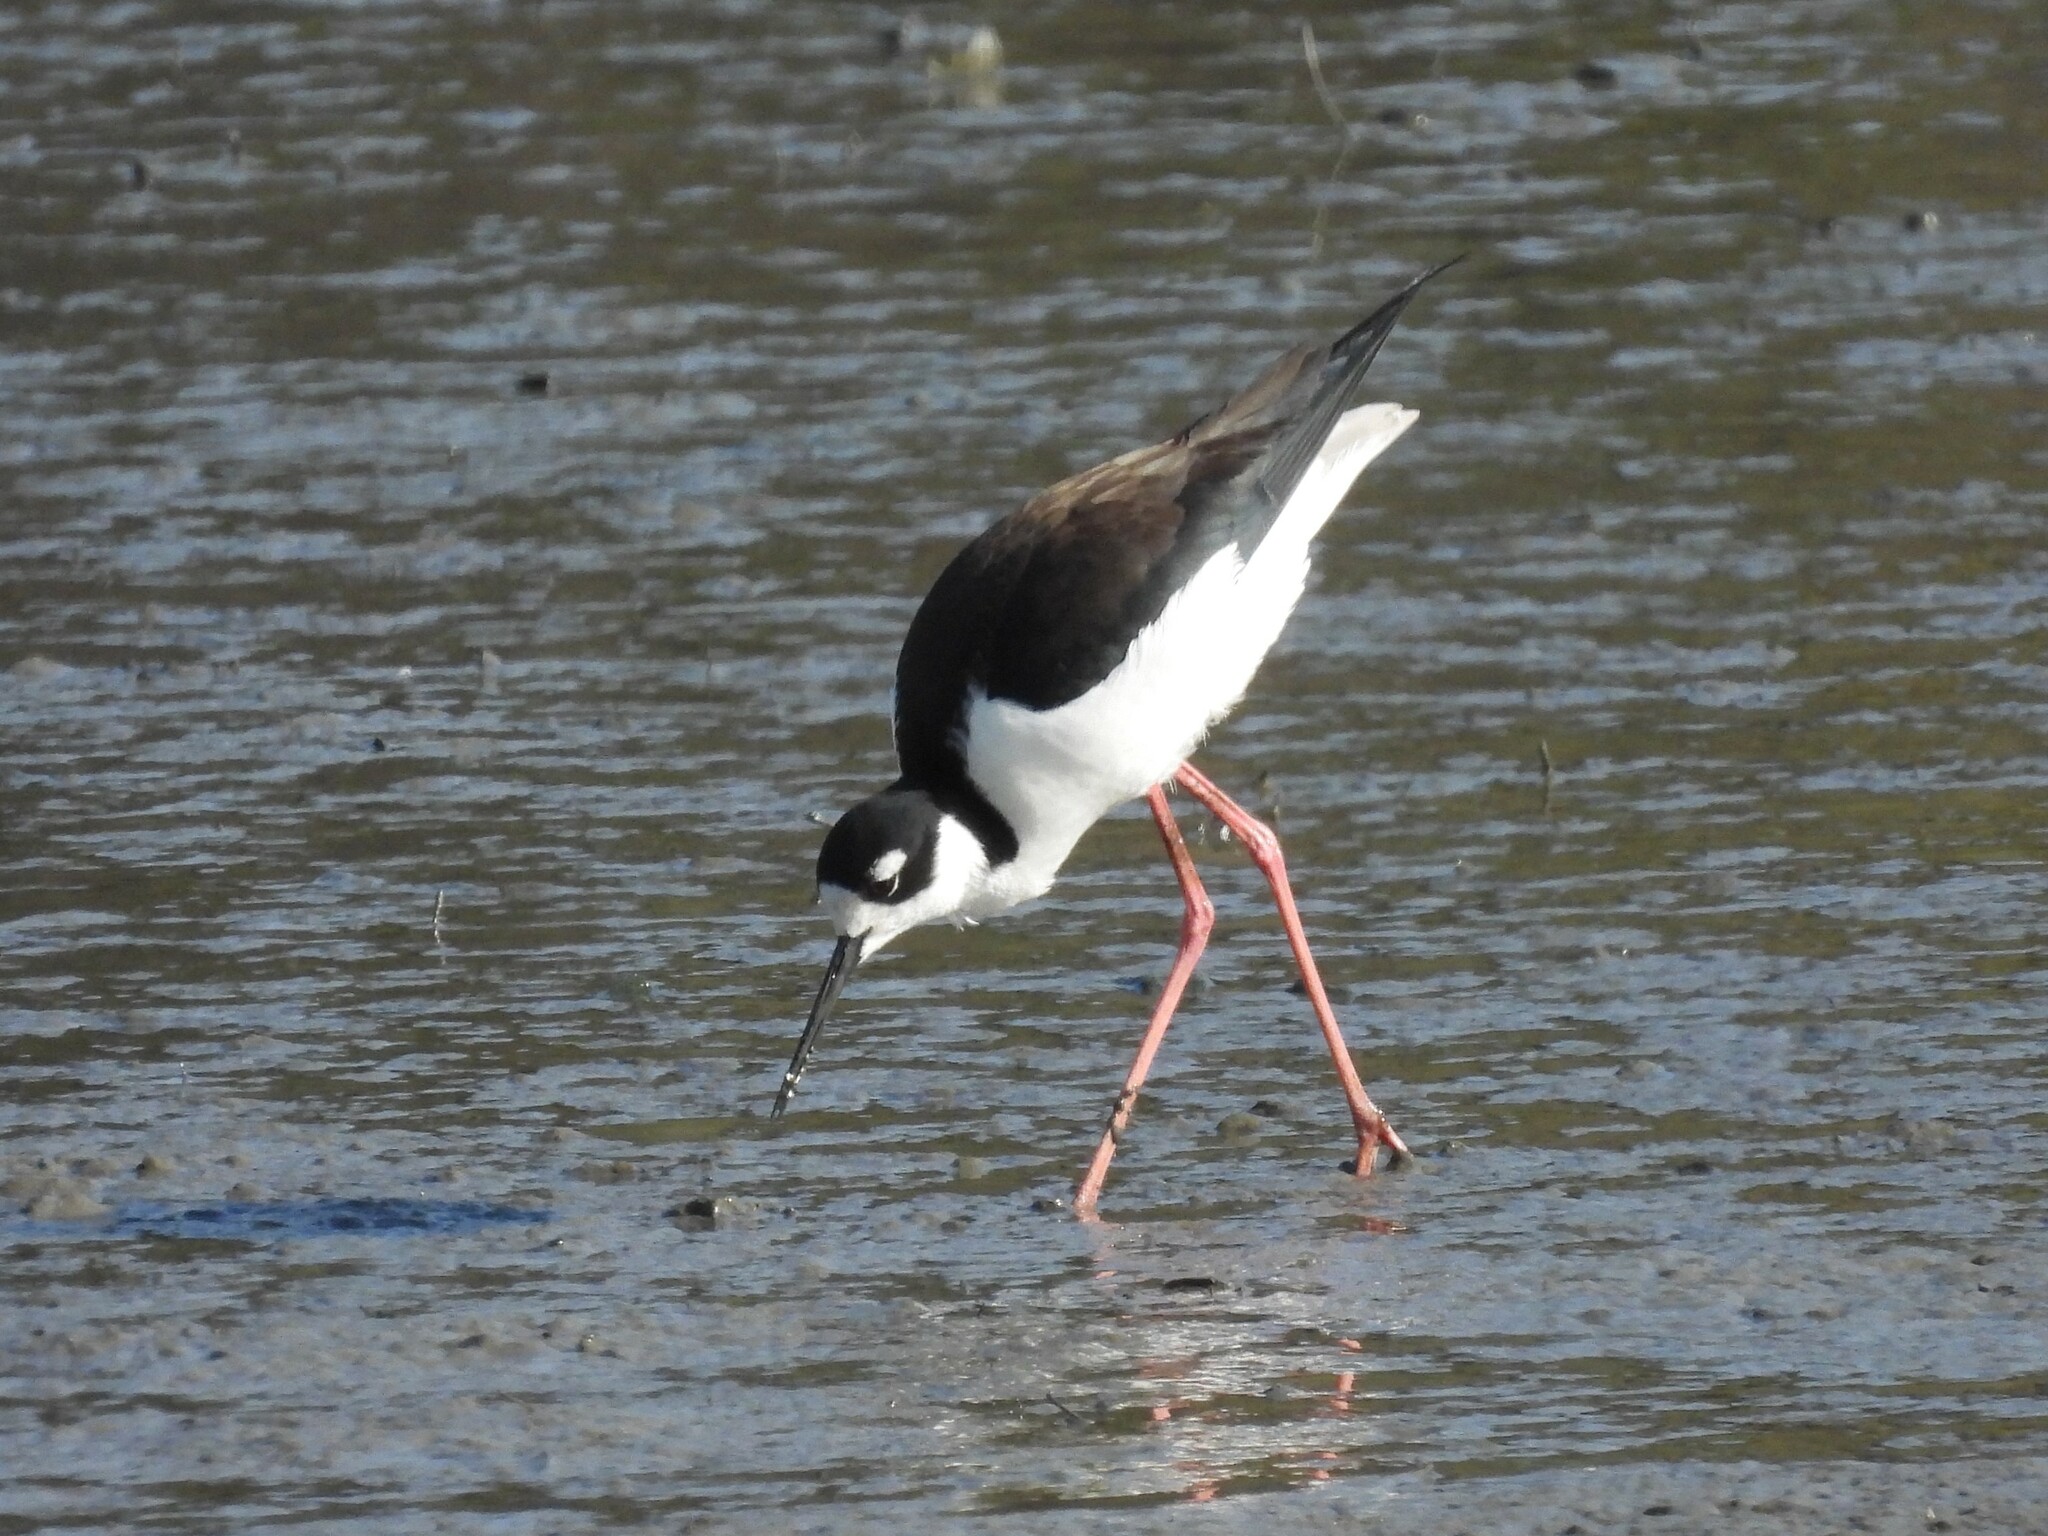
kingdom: Animalia
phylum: Chordata
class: Aves
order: Charadriiformes
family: Recurvirostridae
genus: Himantopus
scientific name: Himantopus mexicanus
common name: Black-necked stilt
